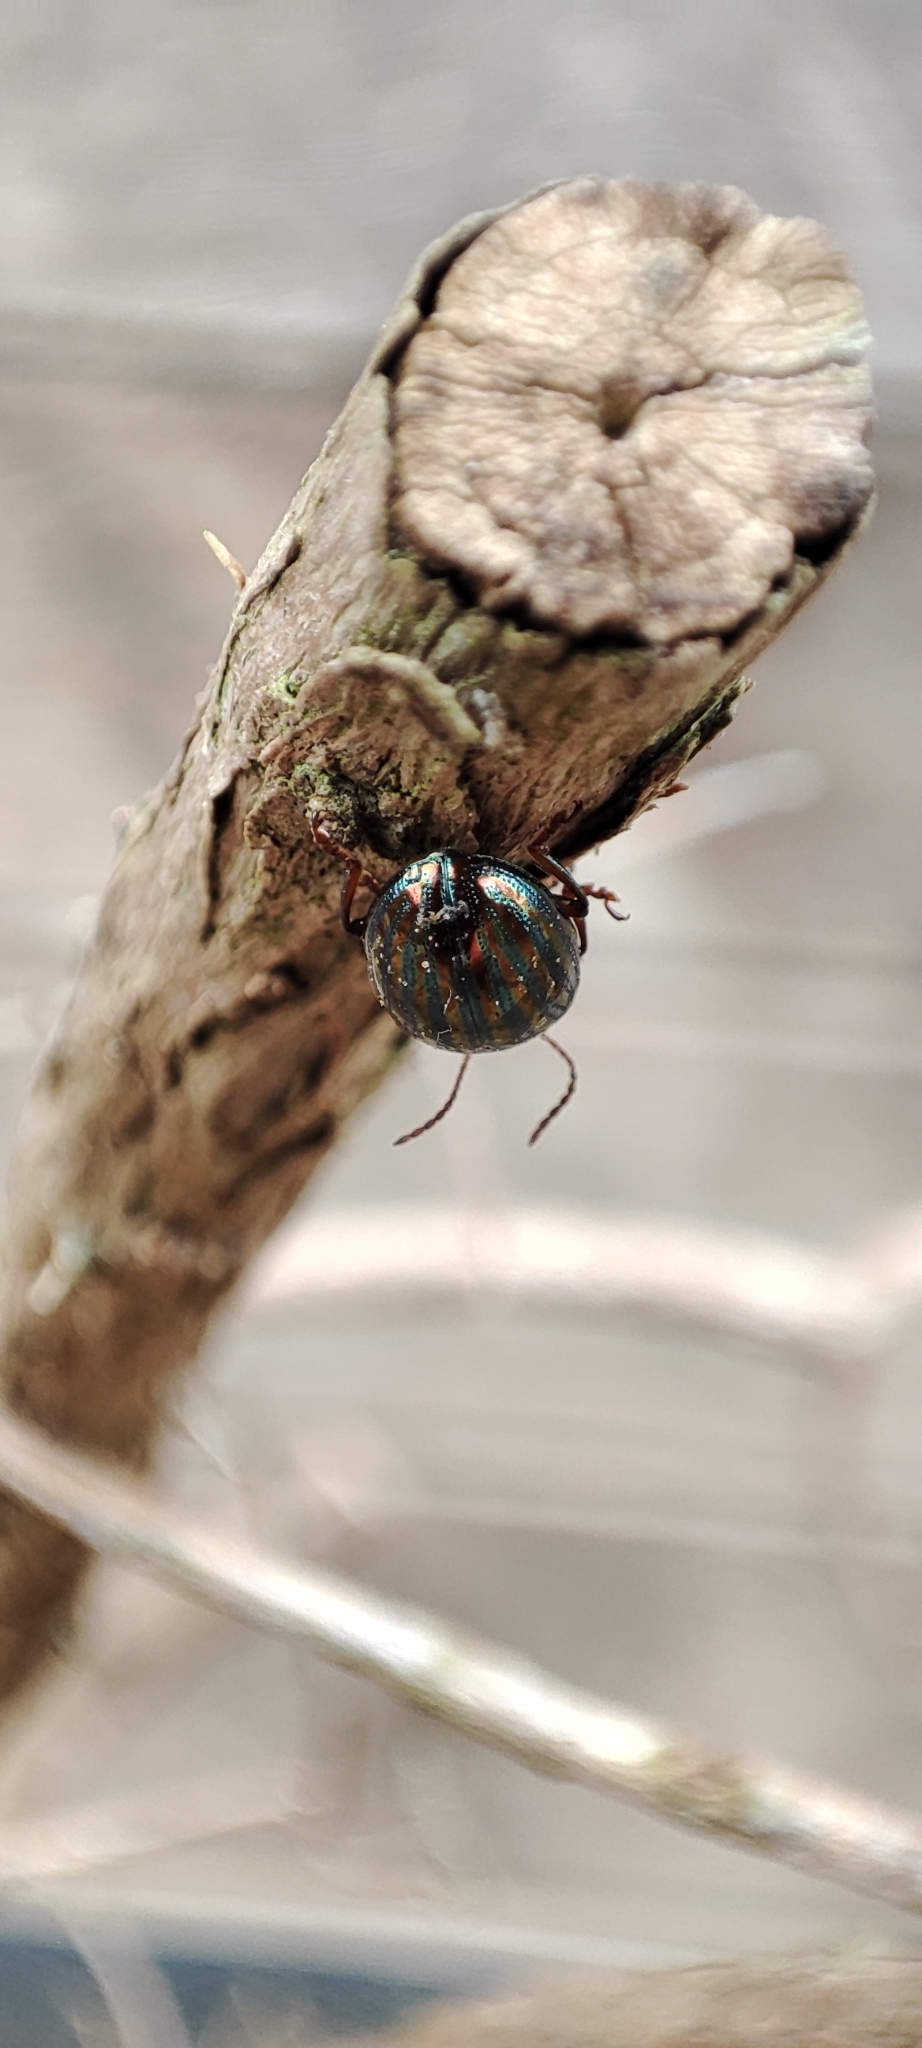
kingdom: Animalia
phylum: Arthropoda
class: Insecta
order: Coleoptera
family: Chrysomelidae
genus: Chrysolina
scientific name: Chrysolina americana
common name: Rosemary beetle
